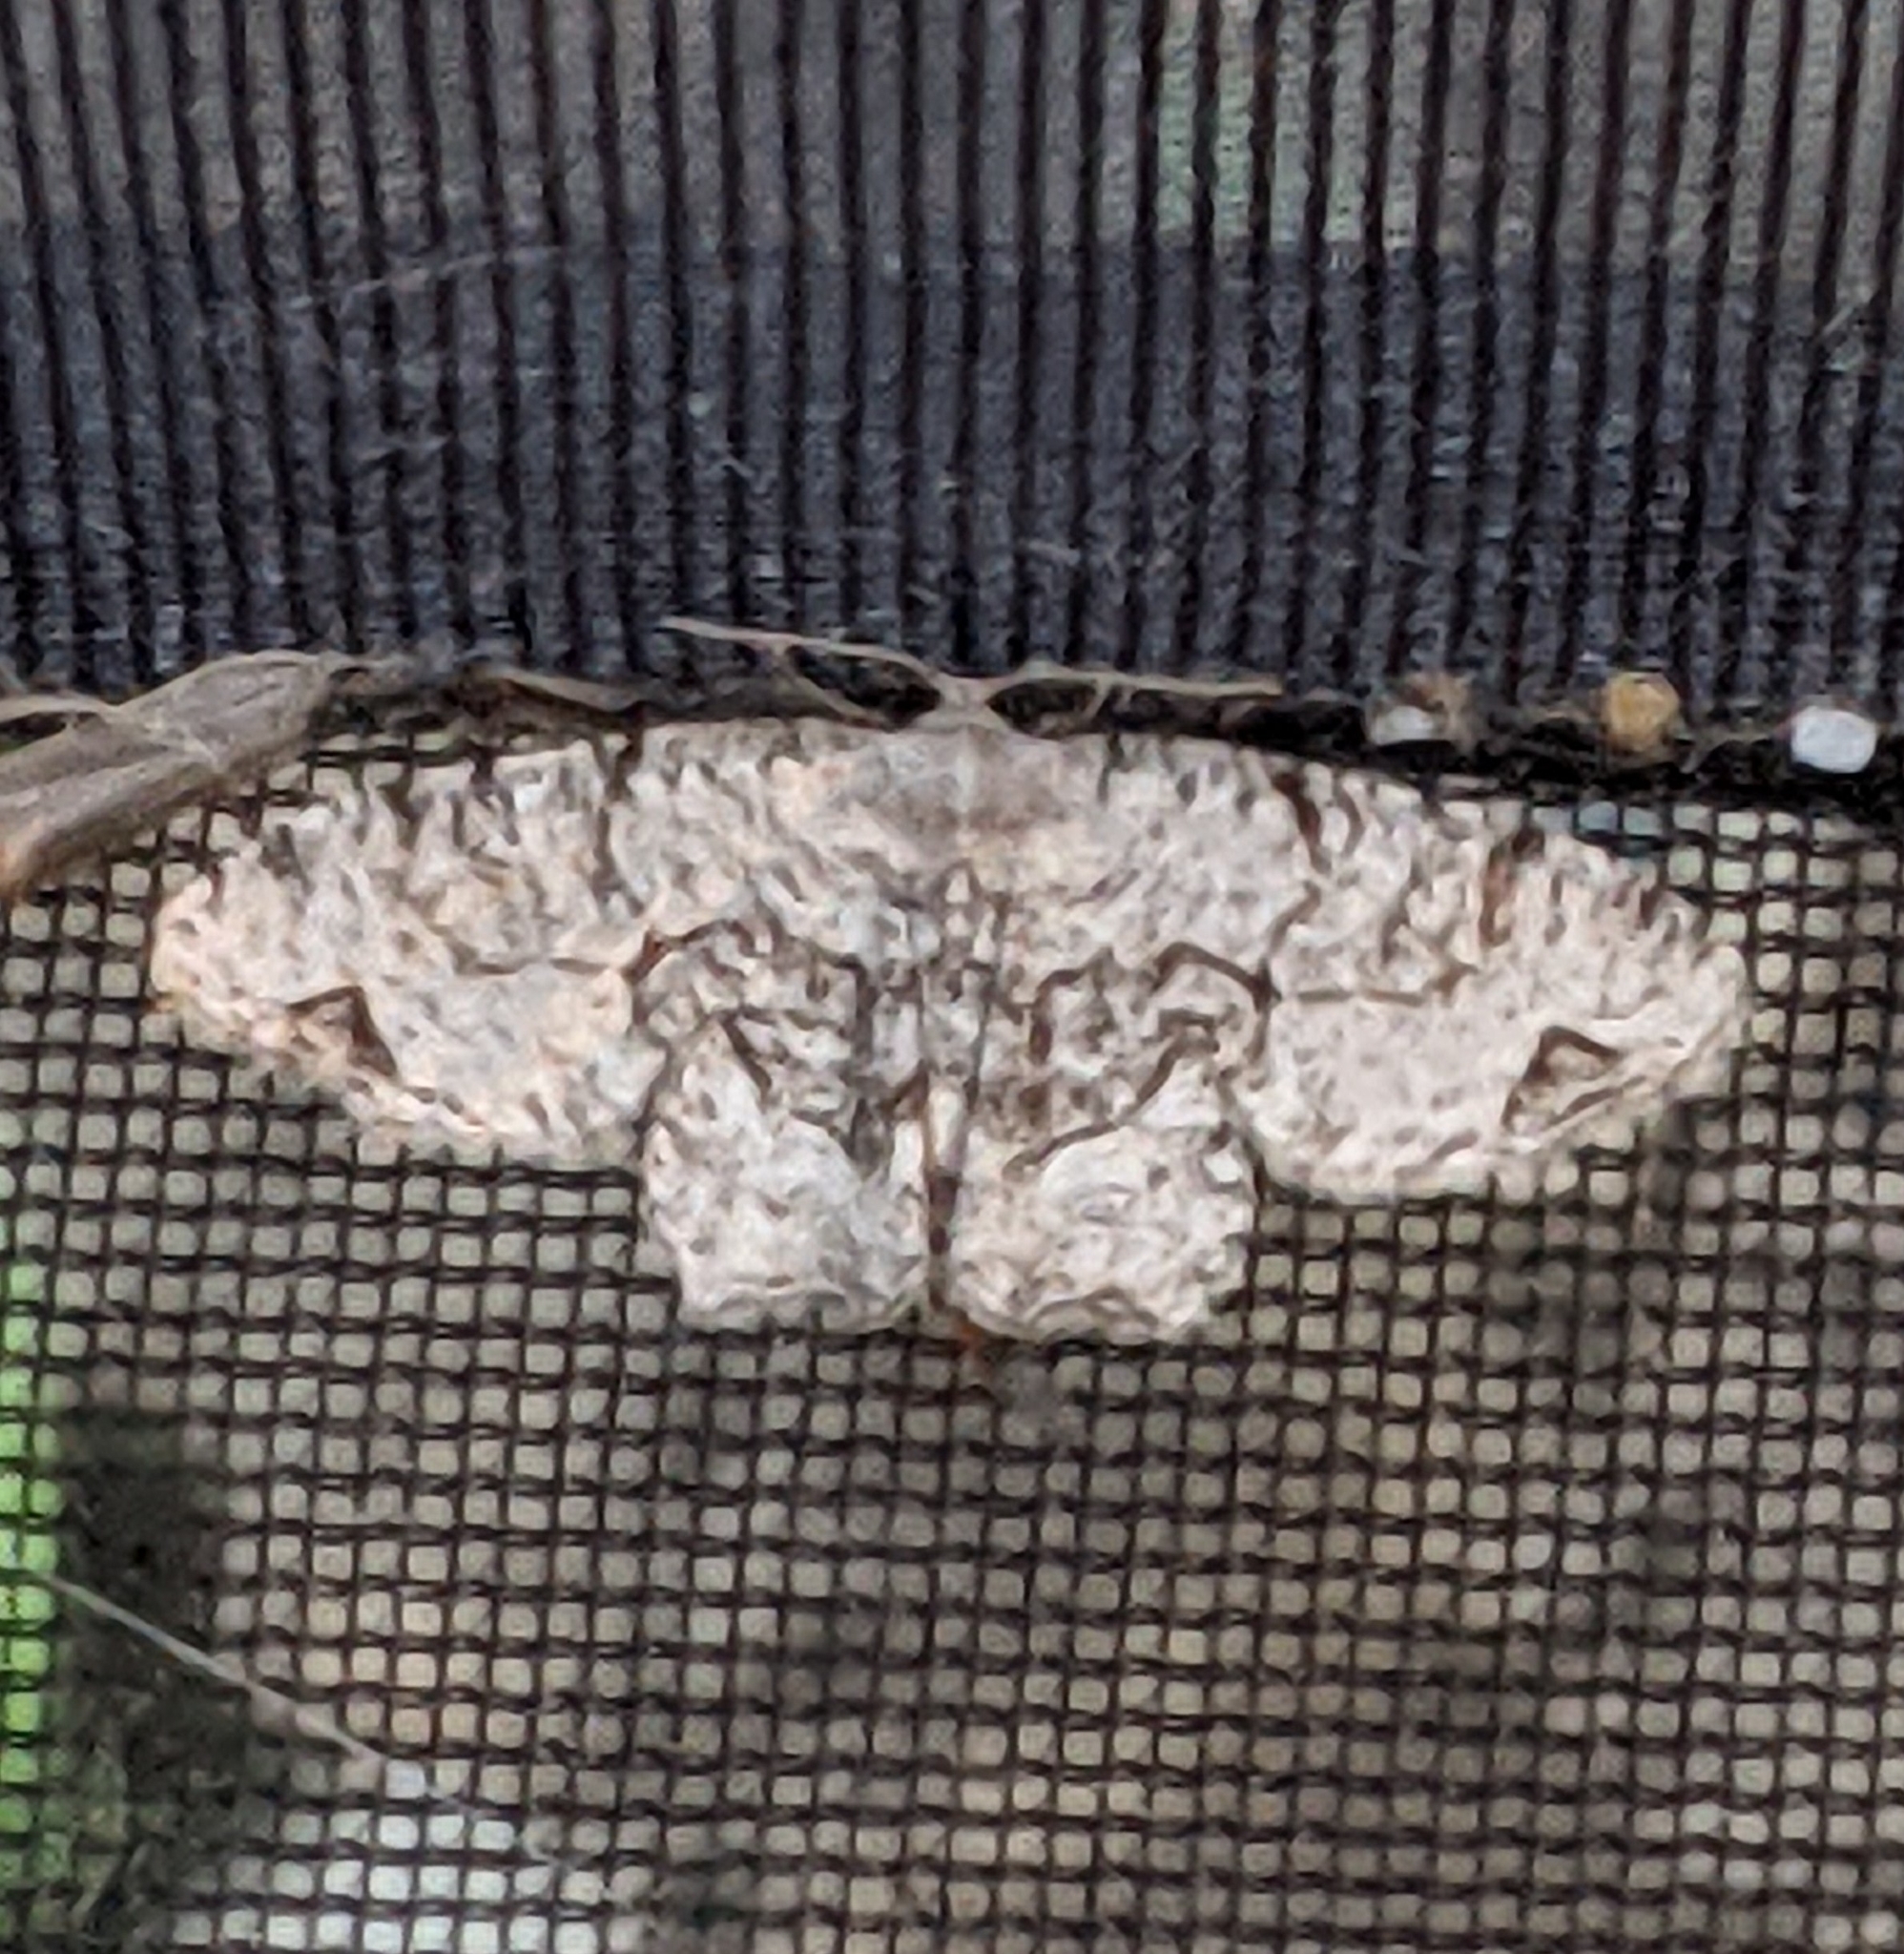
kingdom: Animalia
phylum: Arthropoda
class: Insecta
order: Lepidoptera
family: Uraniidae
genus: Epiplema
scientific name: Epiplema Callizzia amorata
